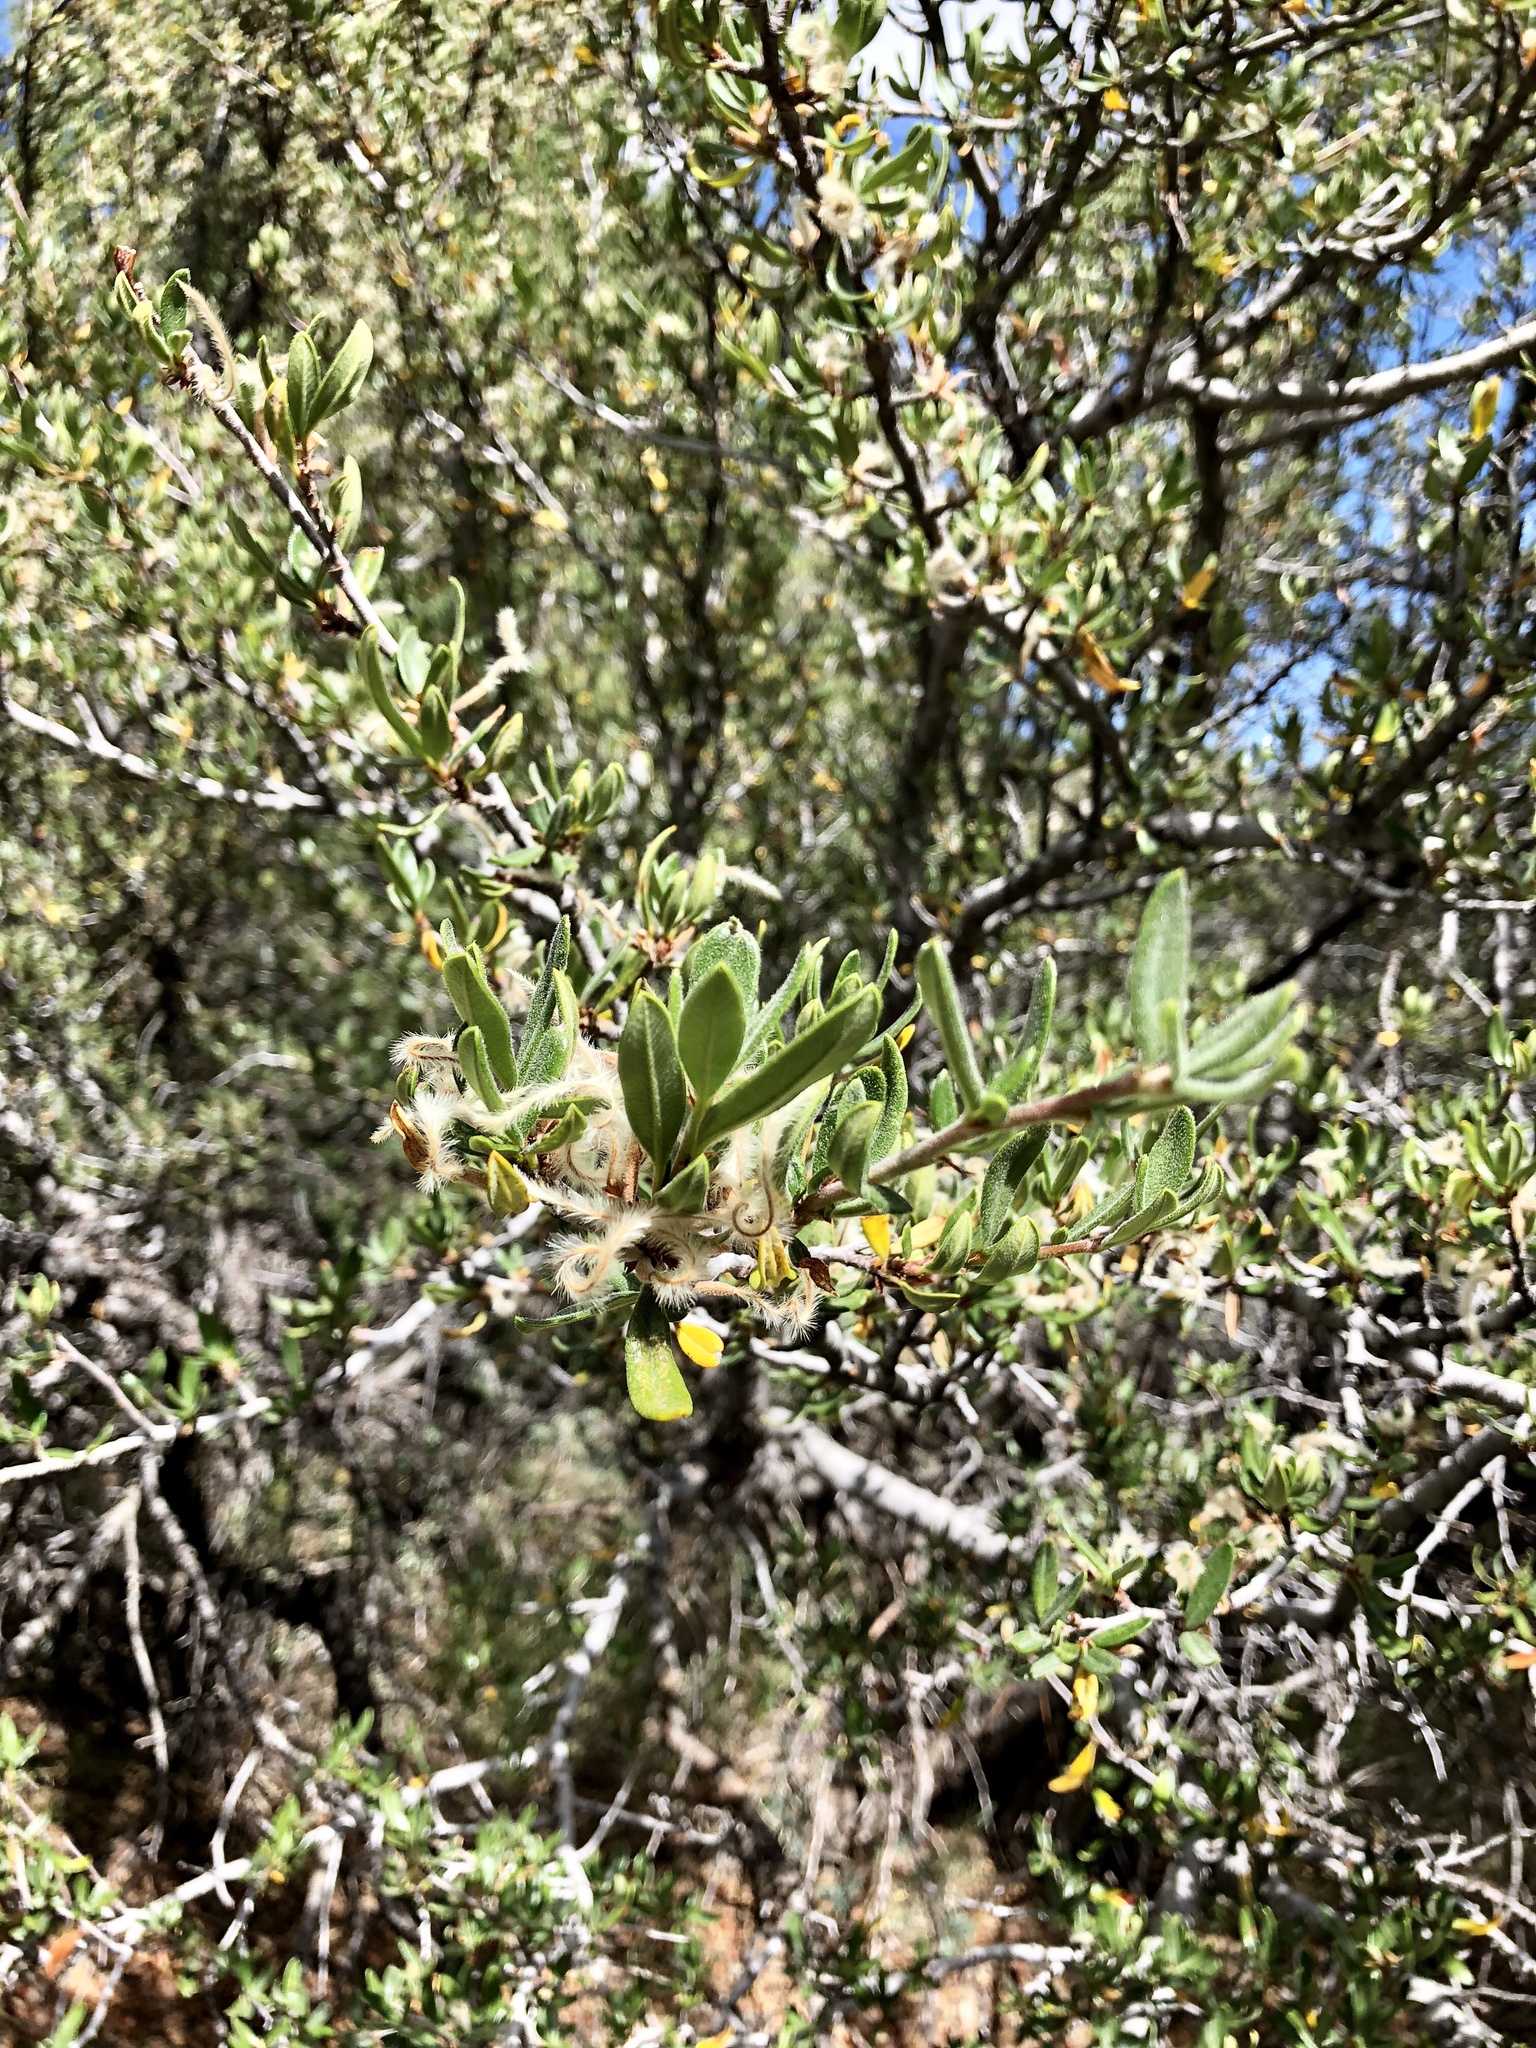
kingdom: Plantae
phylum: Tracheophyta
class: Magnoliopsida
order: Rosales
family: Rosaceae
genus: Cercocarpus
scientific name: Cercocarpus ledifolius
